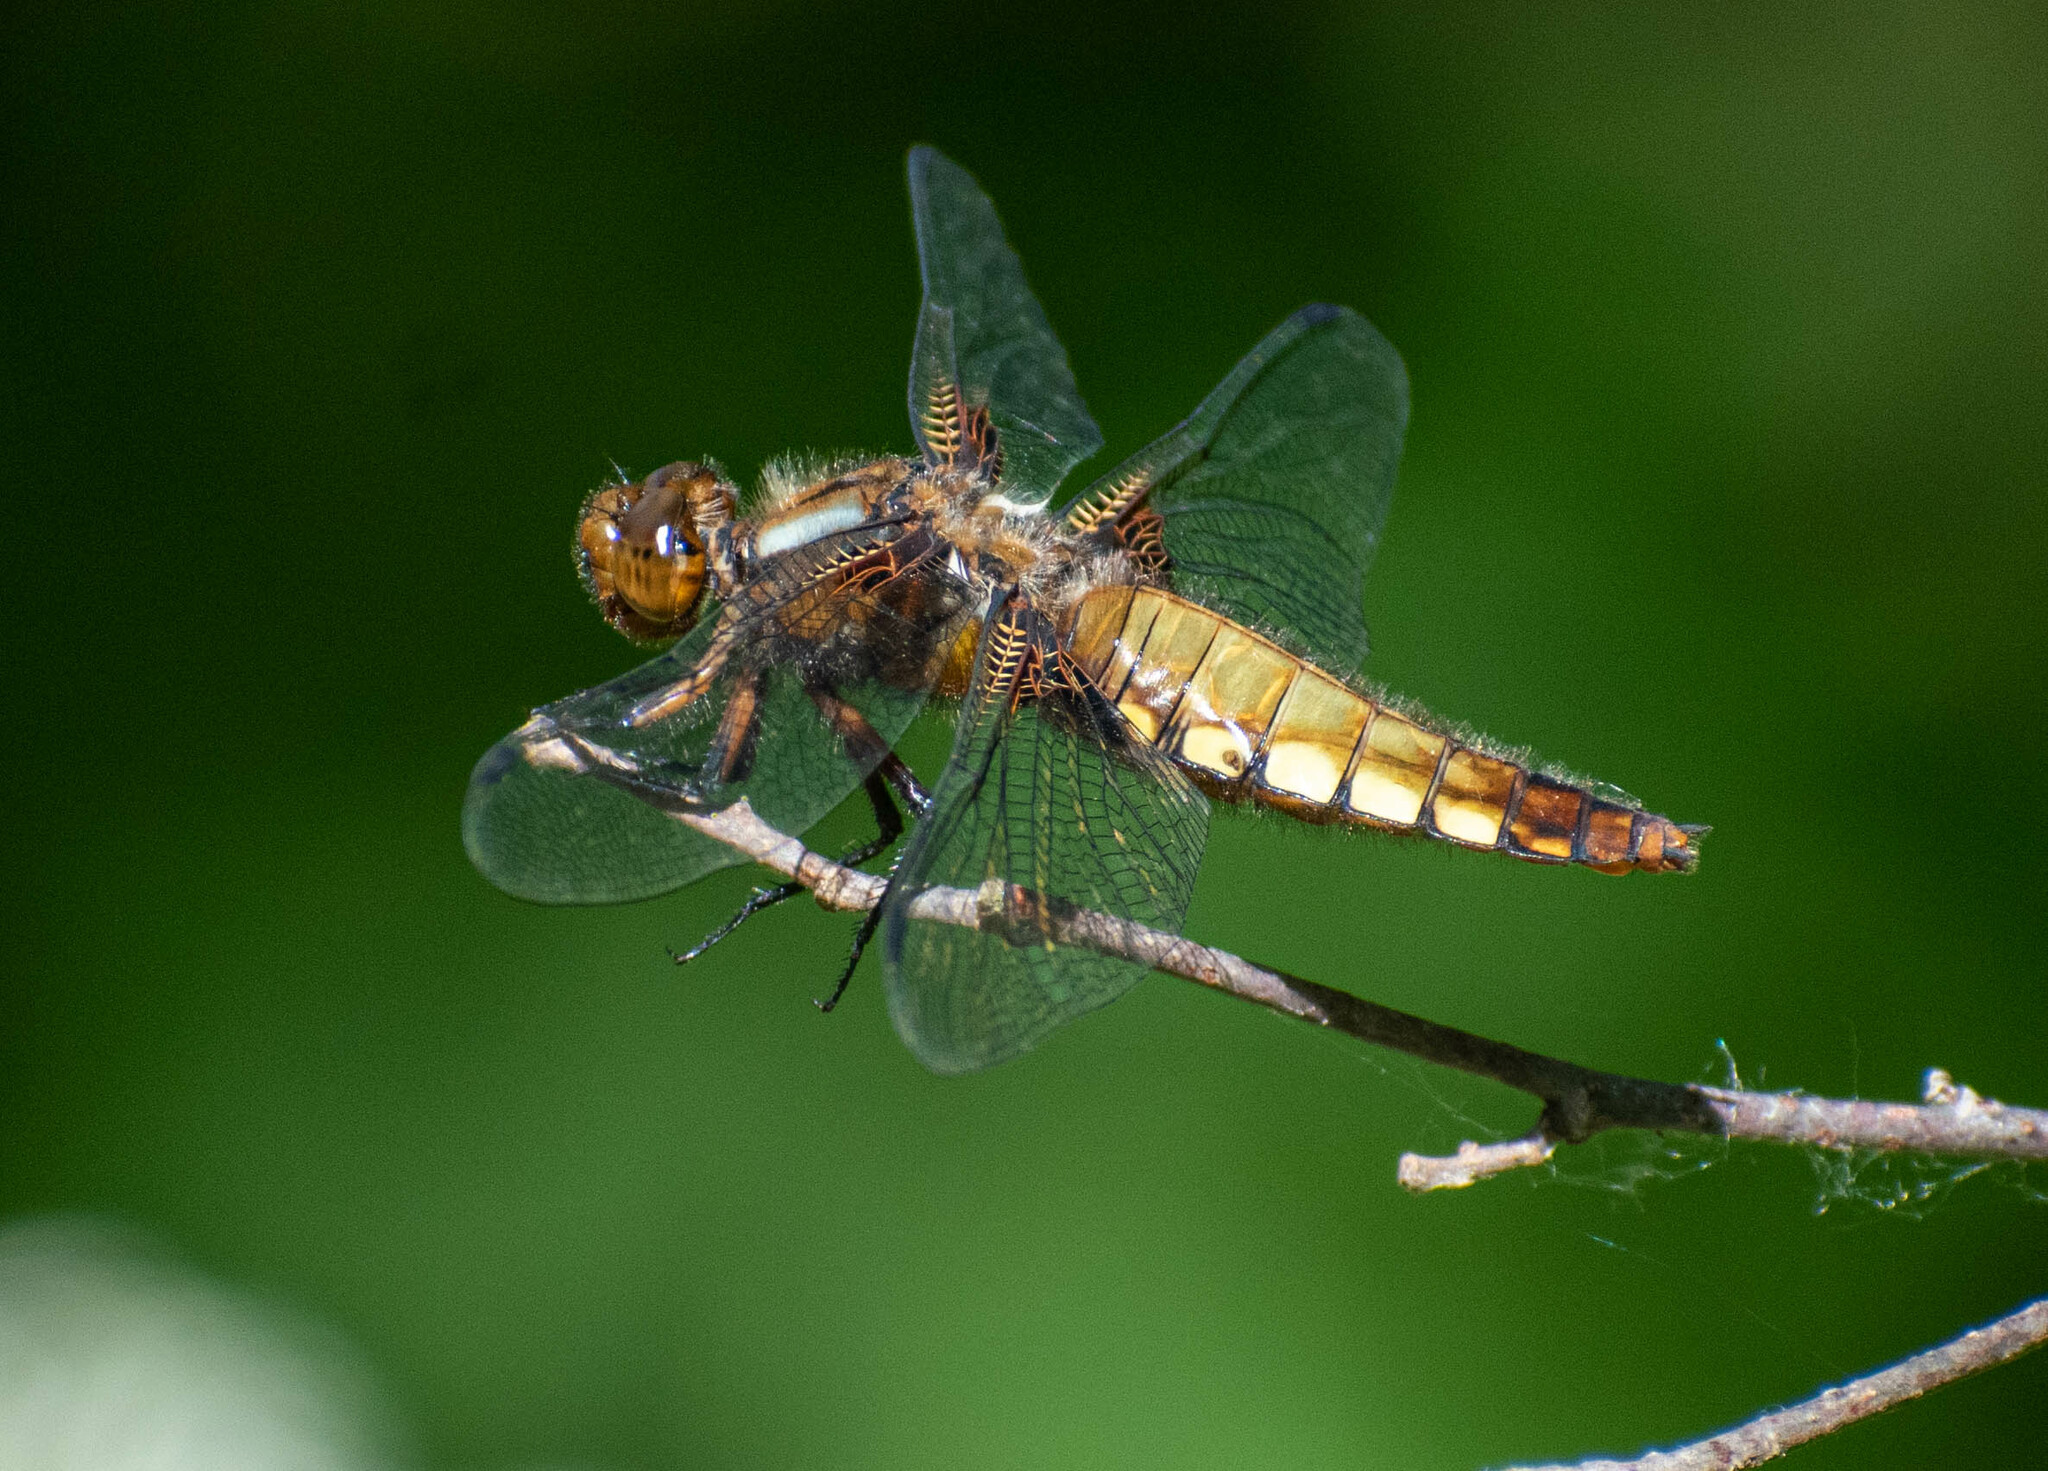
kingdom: Animalia
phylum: Arthropoda
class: Insecta
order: Odonata
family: Libellulidae
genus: Libellula
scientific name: Libellula depressa
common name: Broad-bodied chaser
